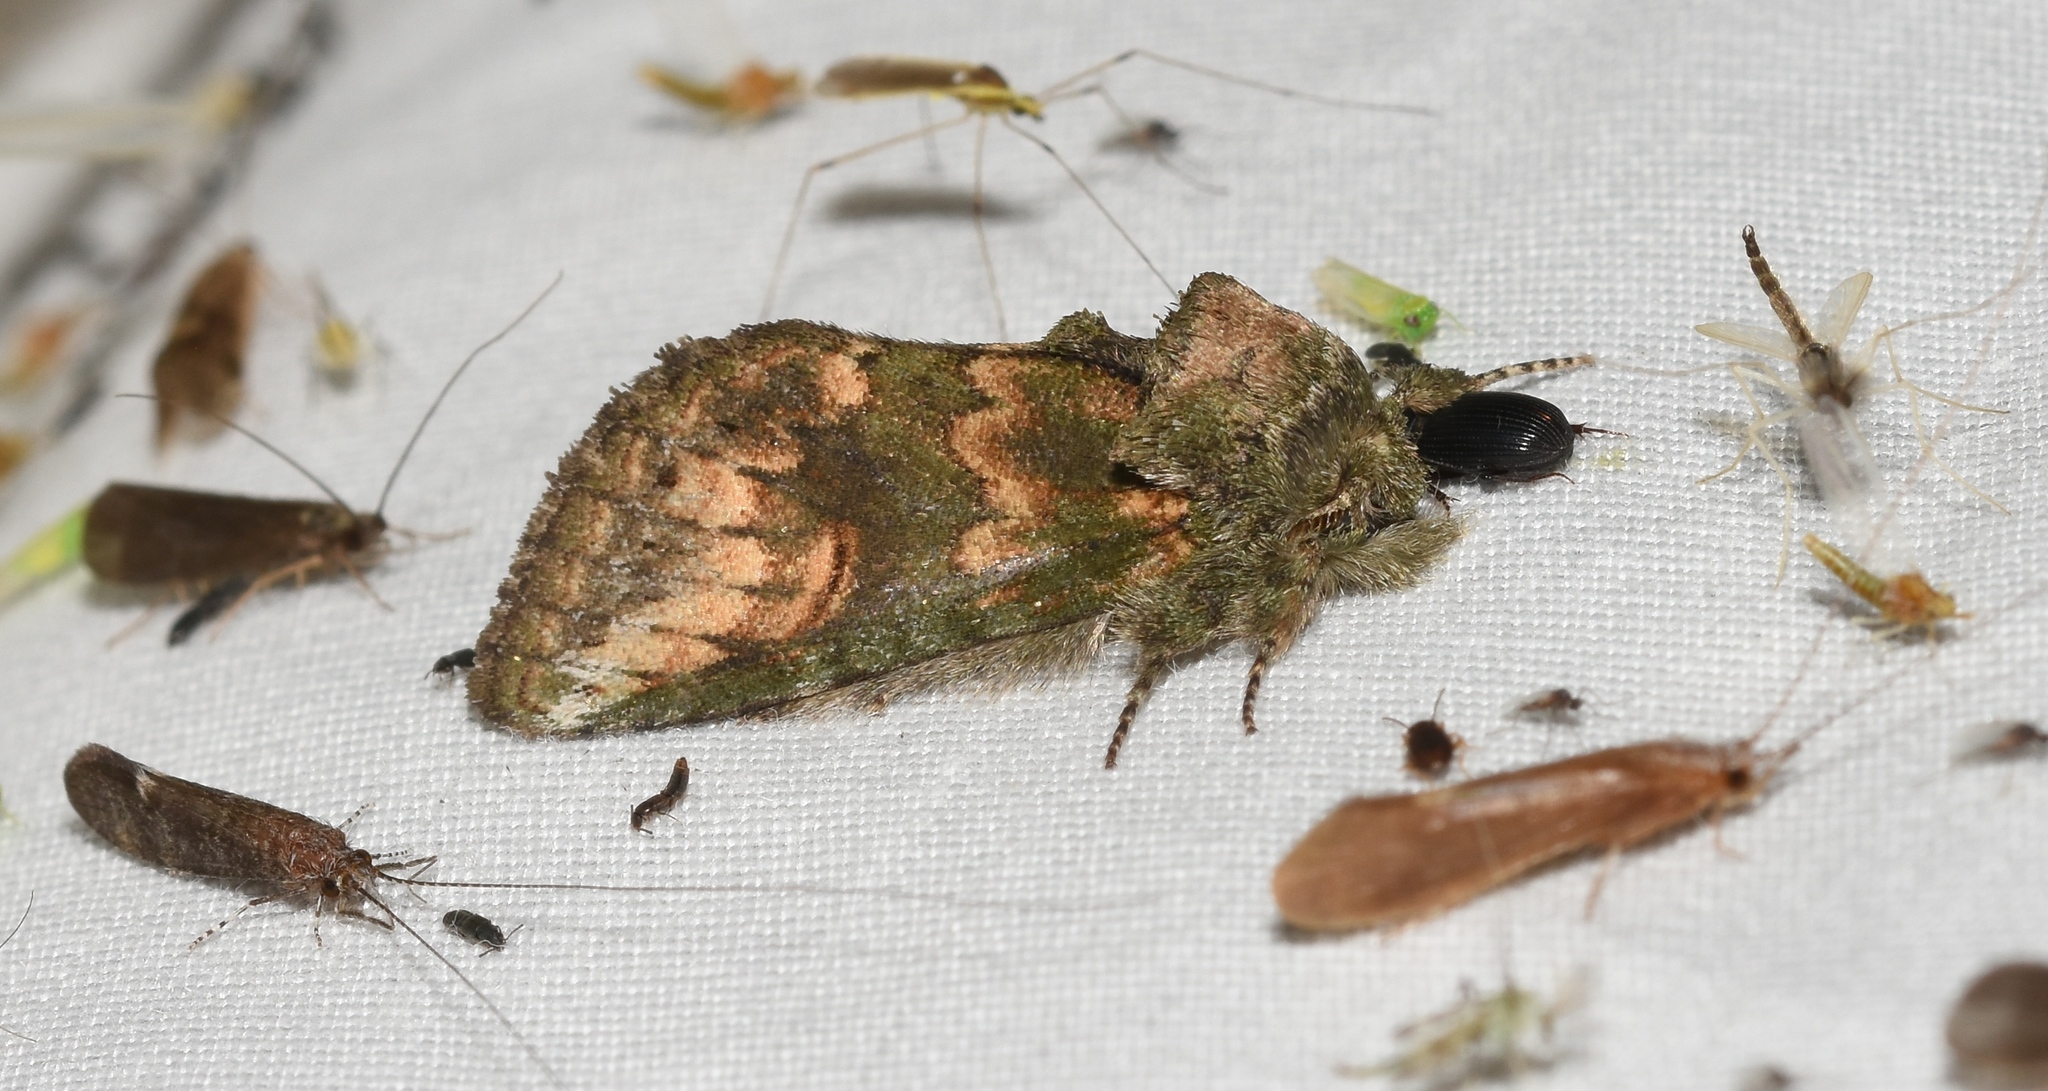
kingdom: Animalia
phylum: Arthropoda
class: Insecta
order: Lepidoptera
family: Notodontidae
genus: Rifargia
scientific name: Rifargia
